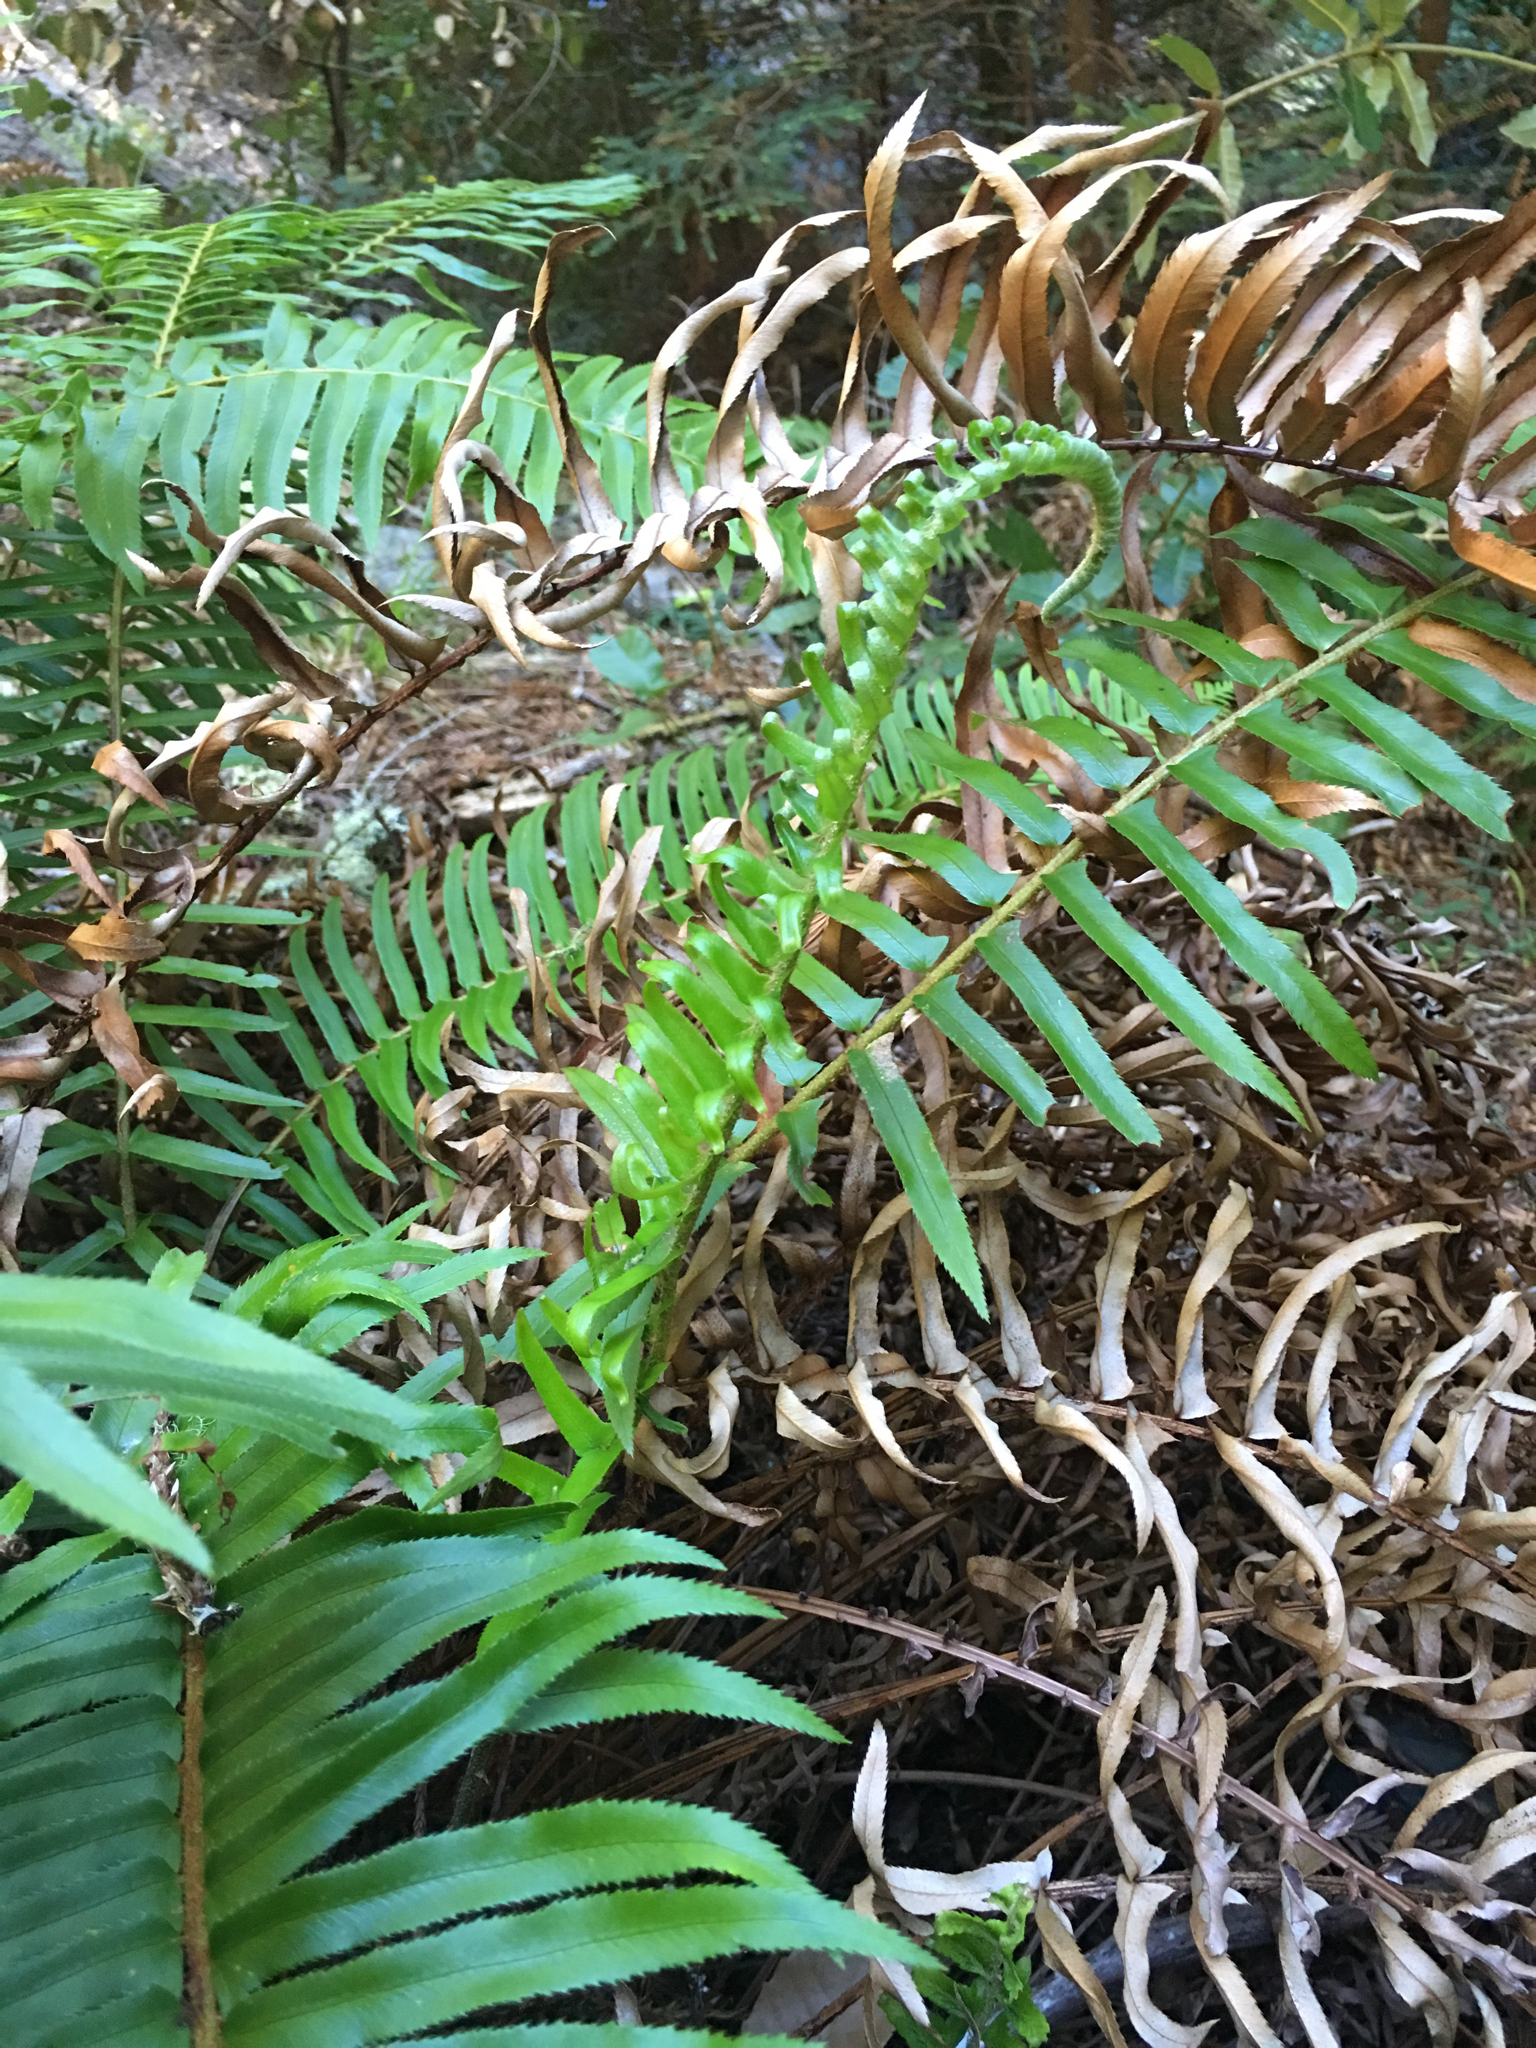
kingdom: Plantae
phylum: Tracheophyta
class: Polypodiopsida
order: Polypodiales
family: Dryopteridaceae
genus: Polystichum
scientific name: Polystichum munitum
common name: Western sword-fern
